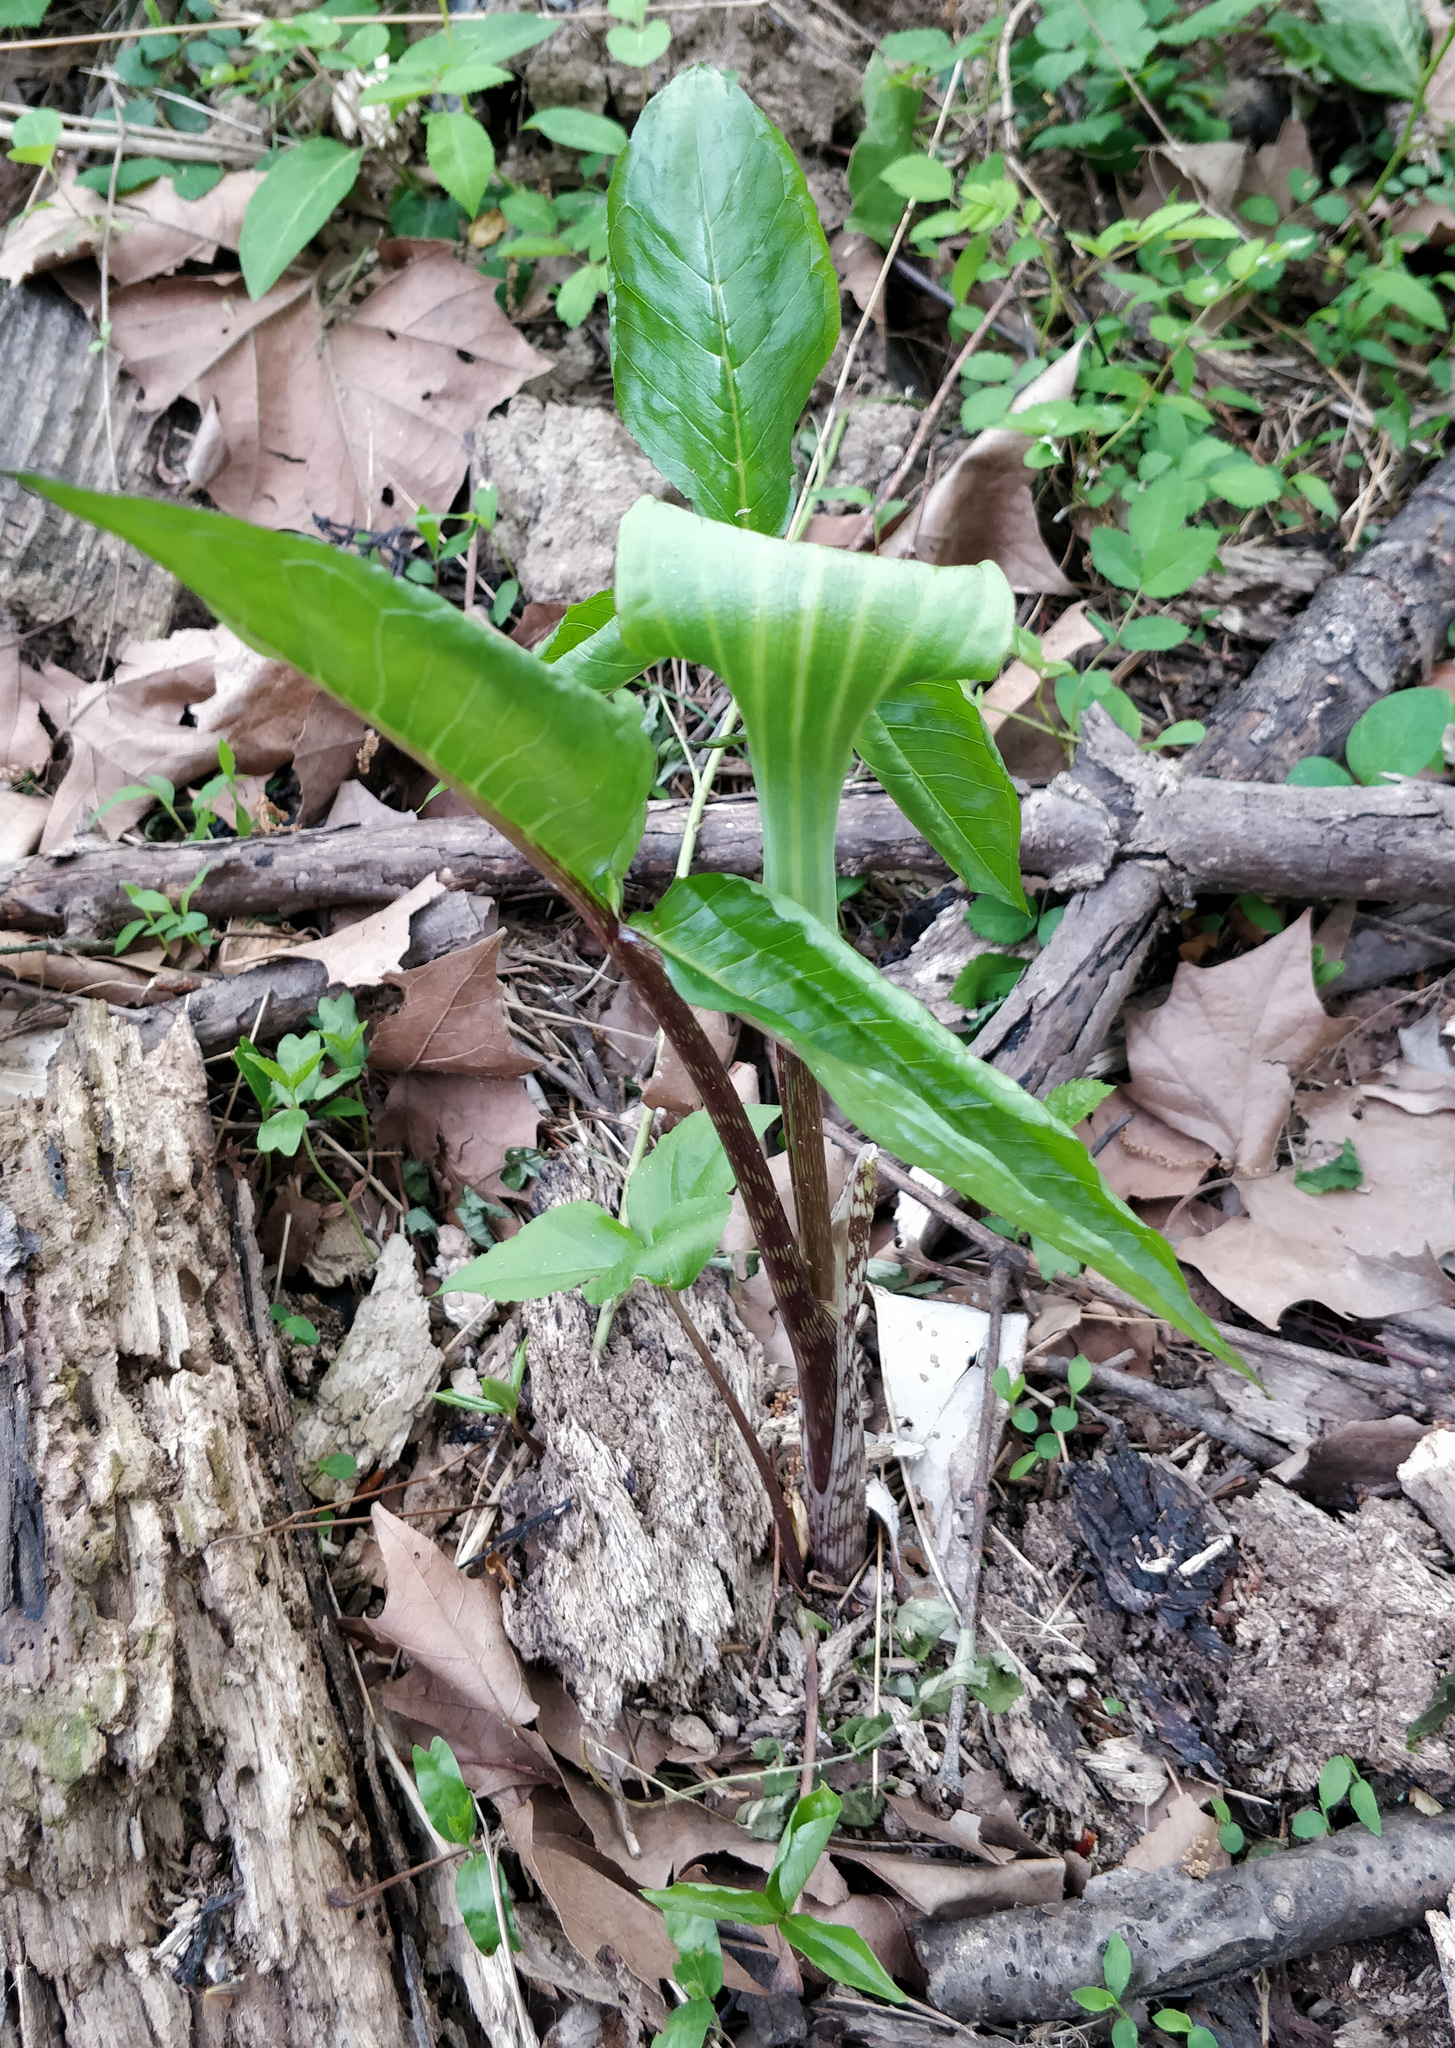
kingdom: Plantae
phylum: Tracheophyta
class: Liliopsida
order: Alismatales
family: Araceae
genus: Arisaema
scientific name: Arisaema triphyllum
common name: Jack-in-the-pulpit
